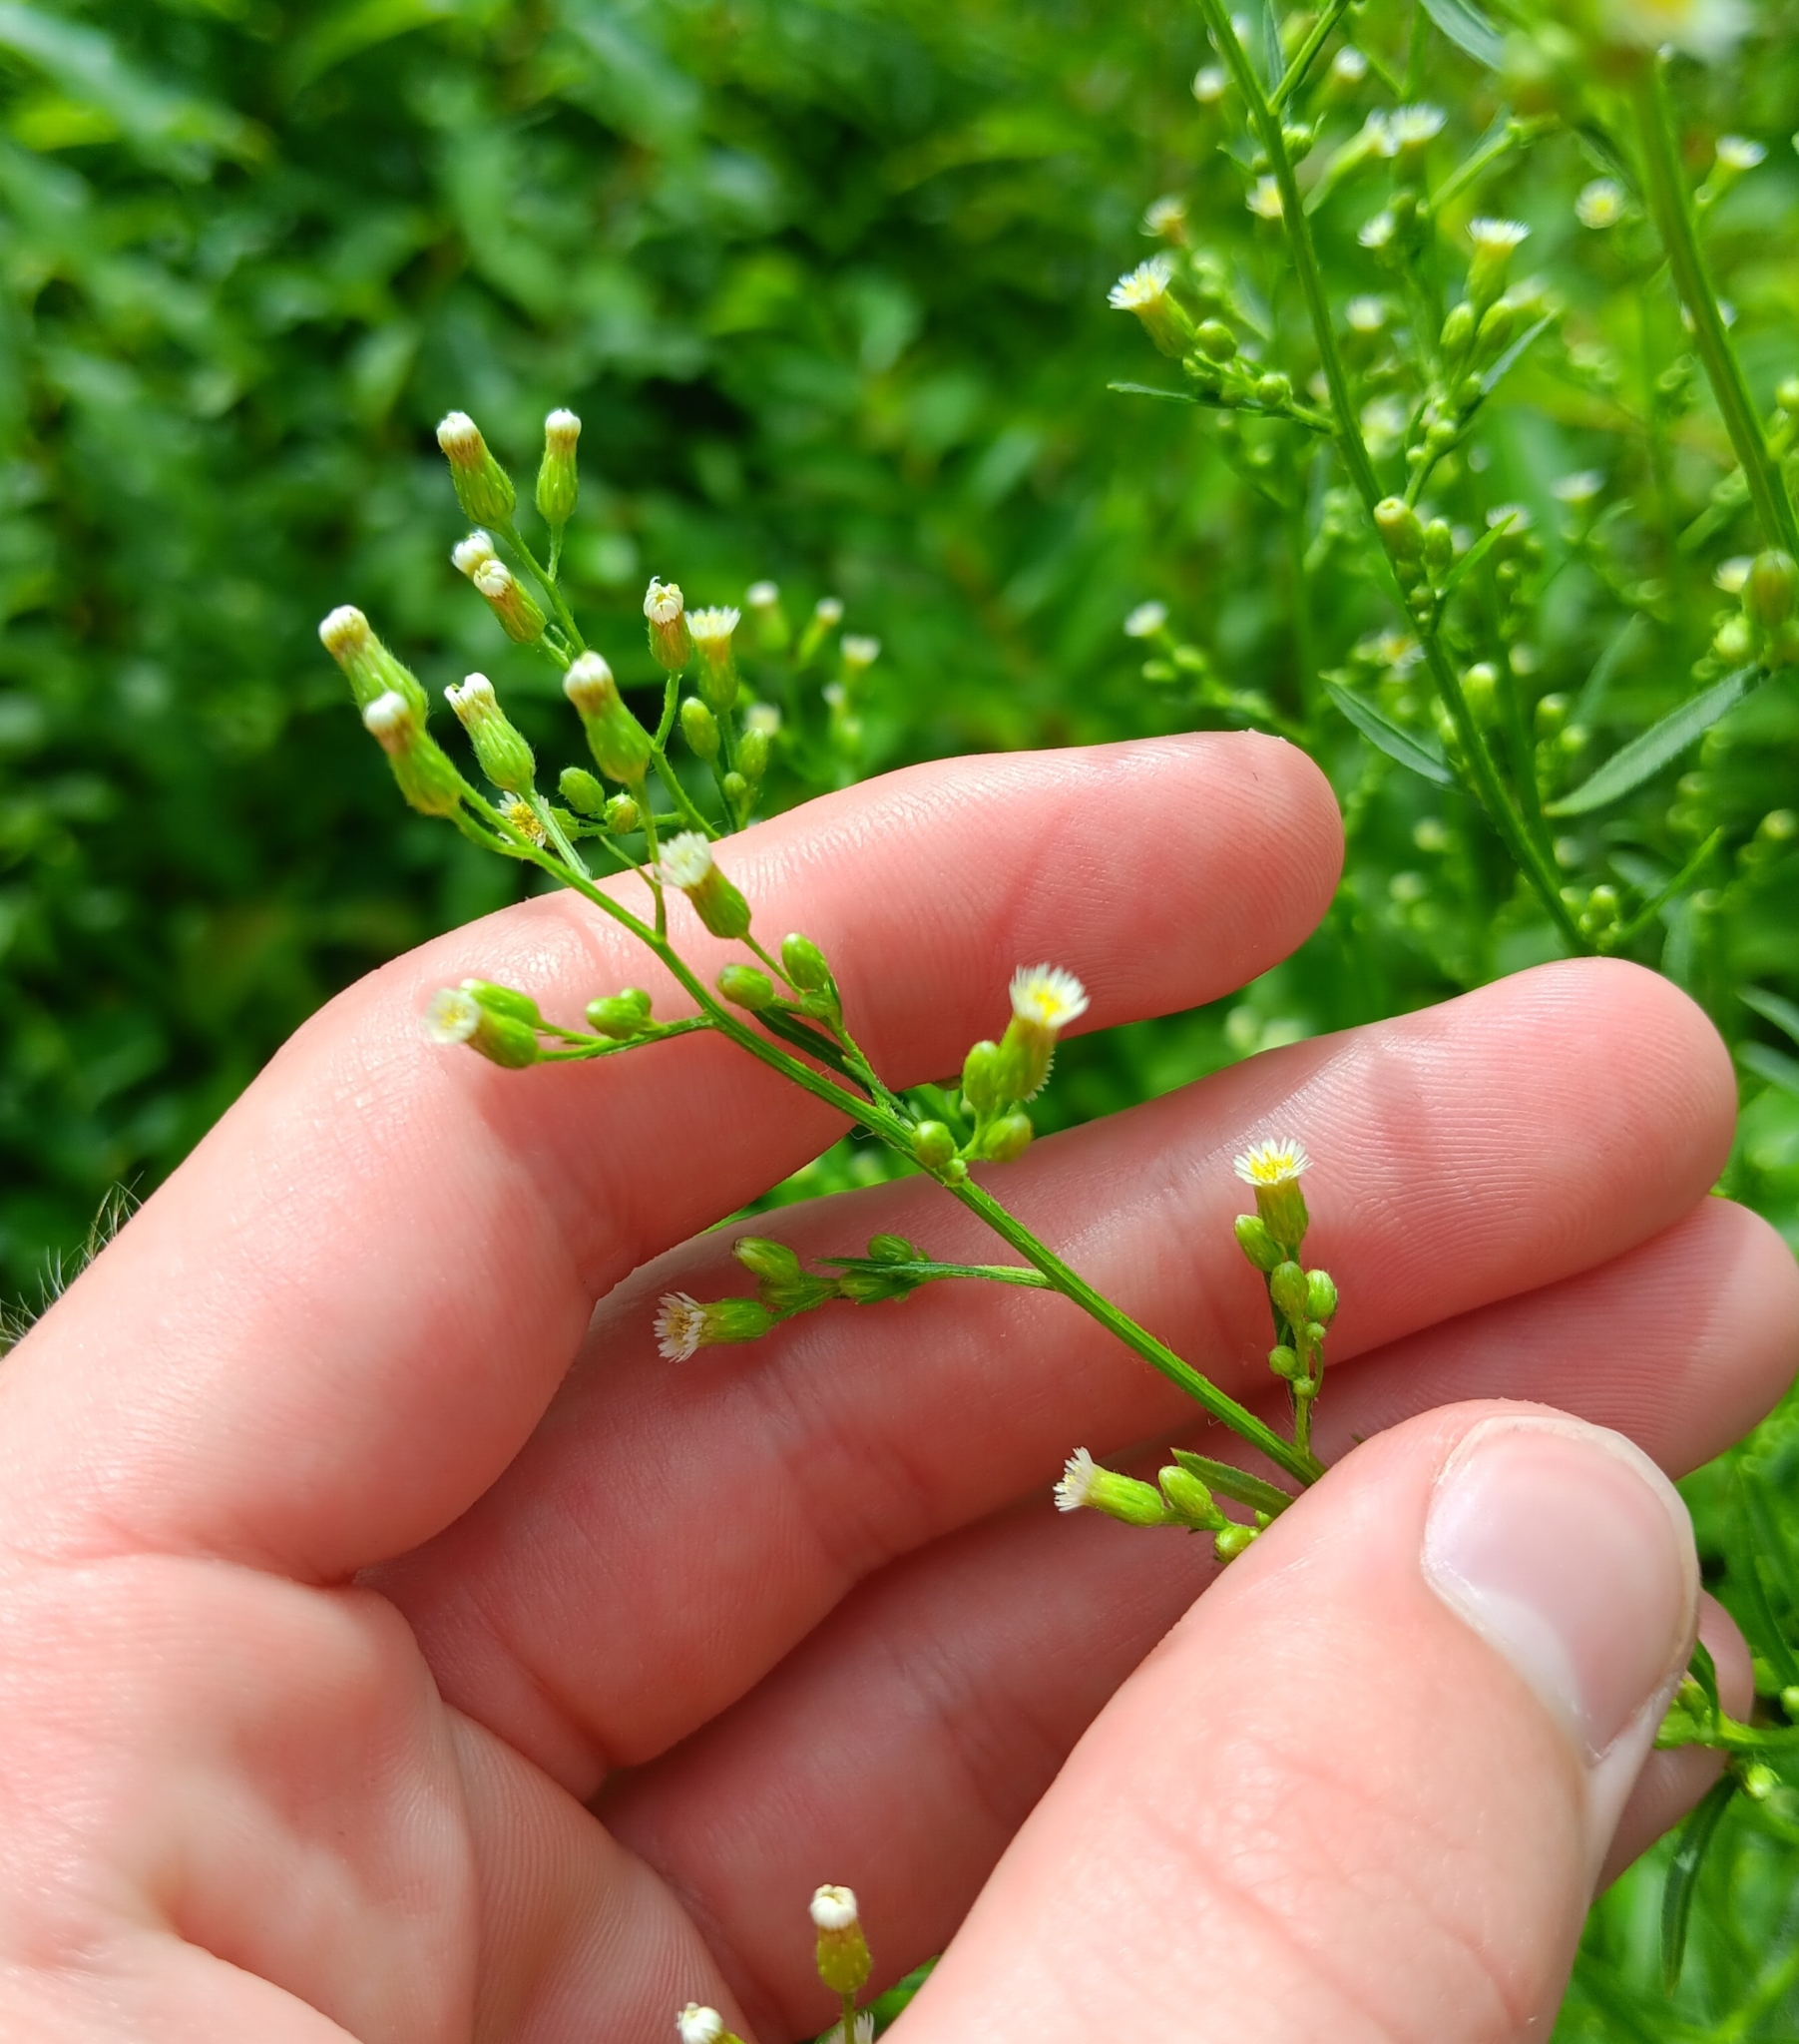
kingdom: Plantae
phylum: Tracheophyta
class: Magnoliopsida
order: Asterales
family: Asteraceae
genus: Erigeron
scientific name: Erigeron canadensis
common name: Canadian fleabane
